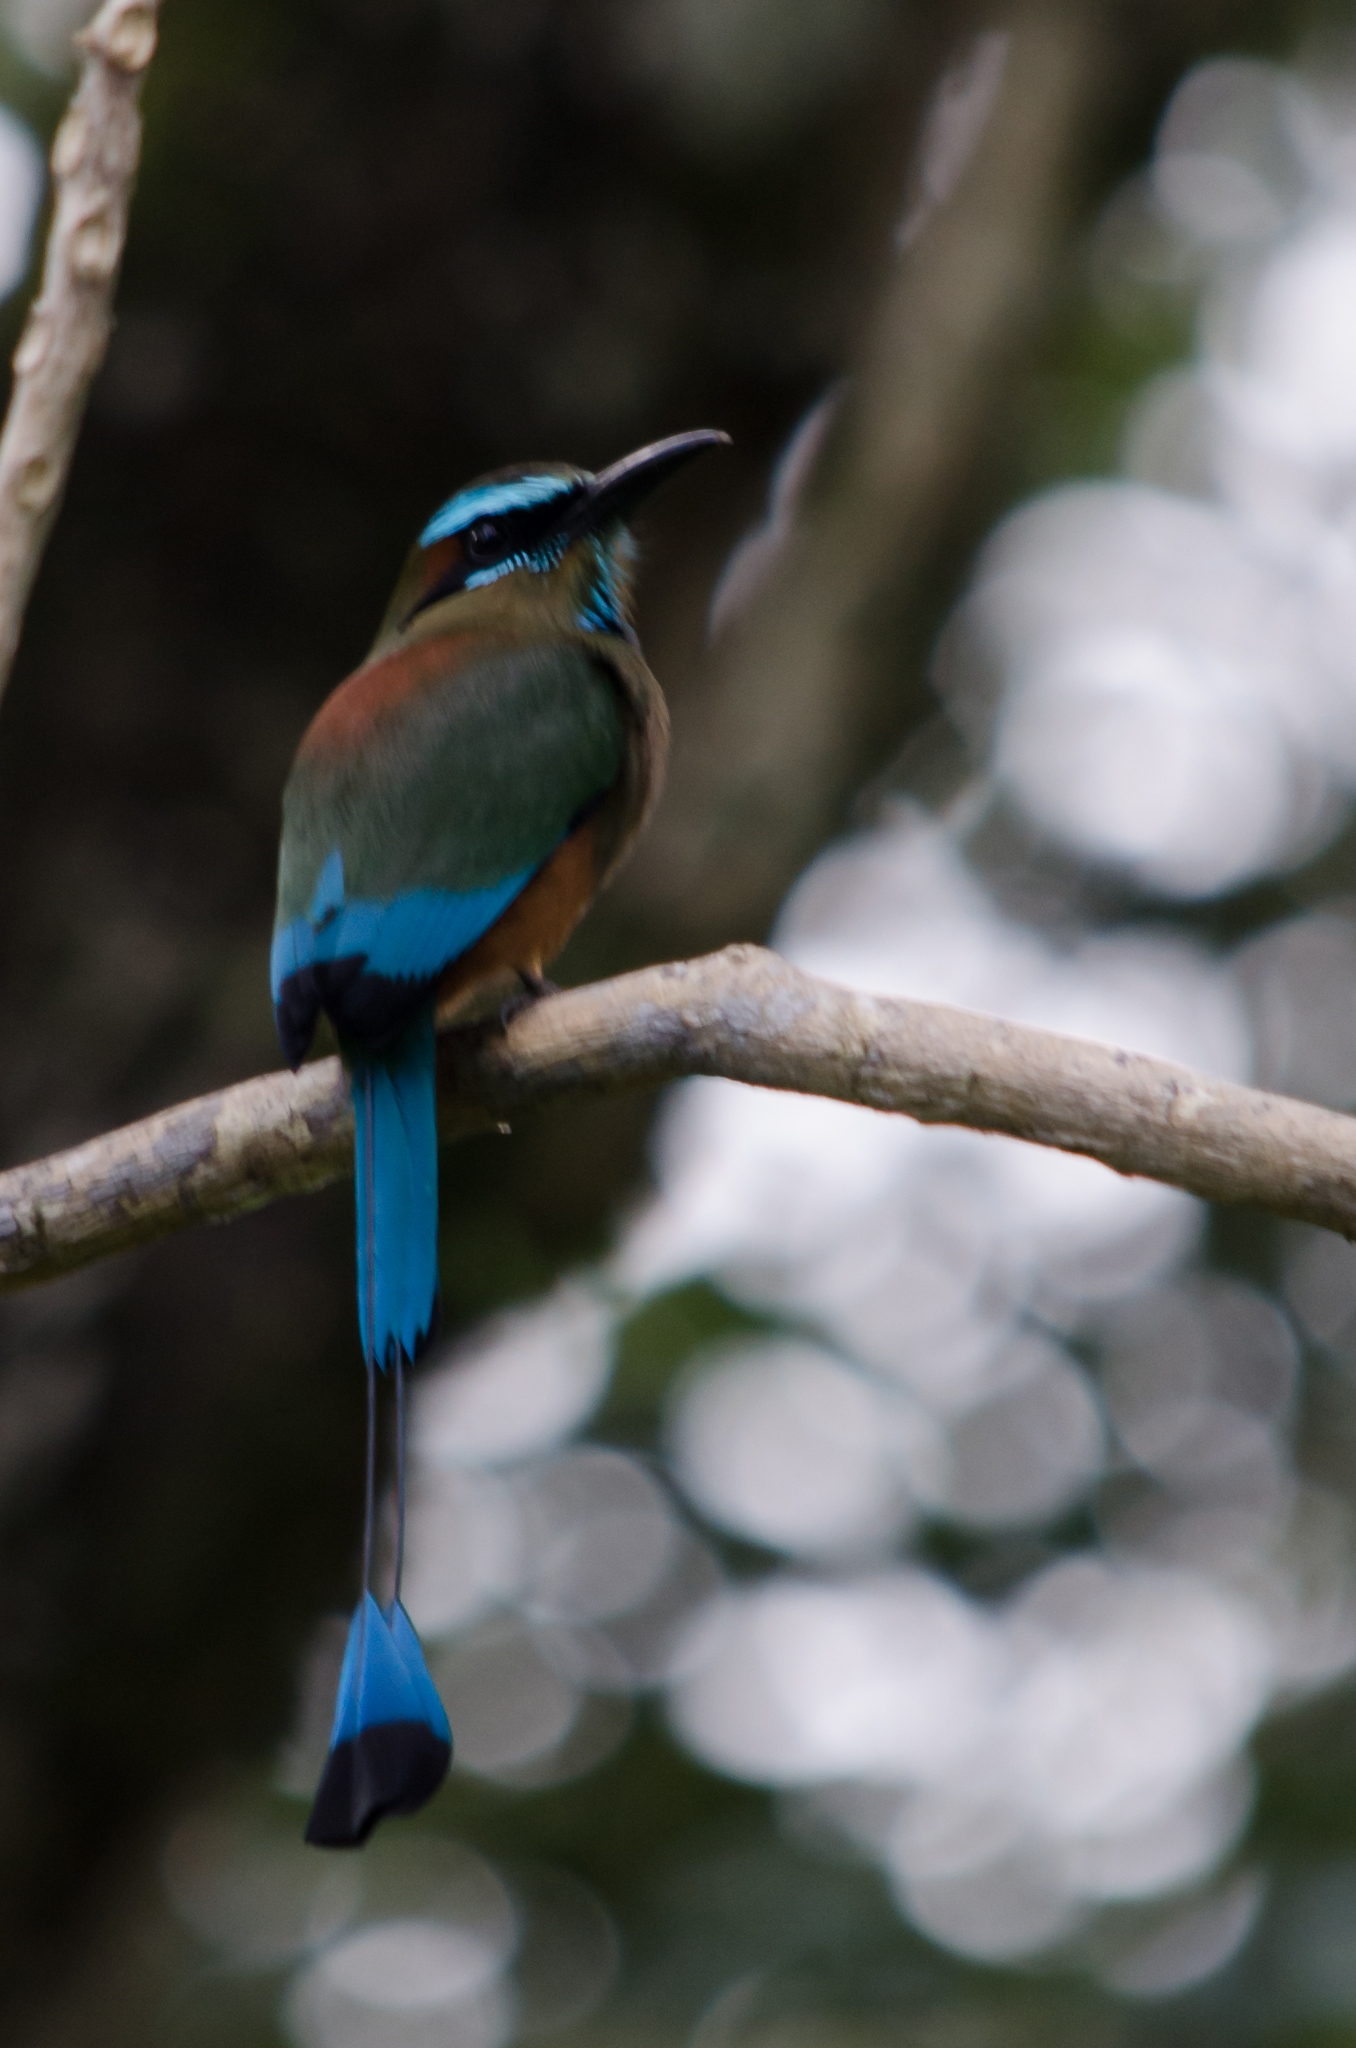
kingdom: Animalia
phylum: Chordata
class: Aves
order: Coraciiformes
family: Momotidae
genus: Eumomota
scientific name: Eumomota superciliosa
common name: Turquoise-browed motmot
